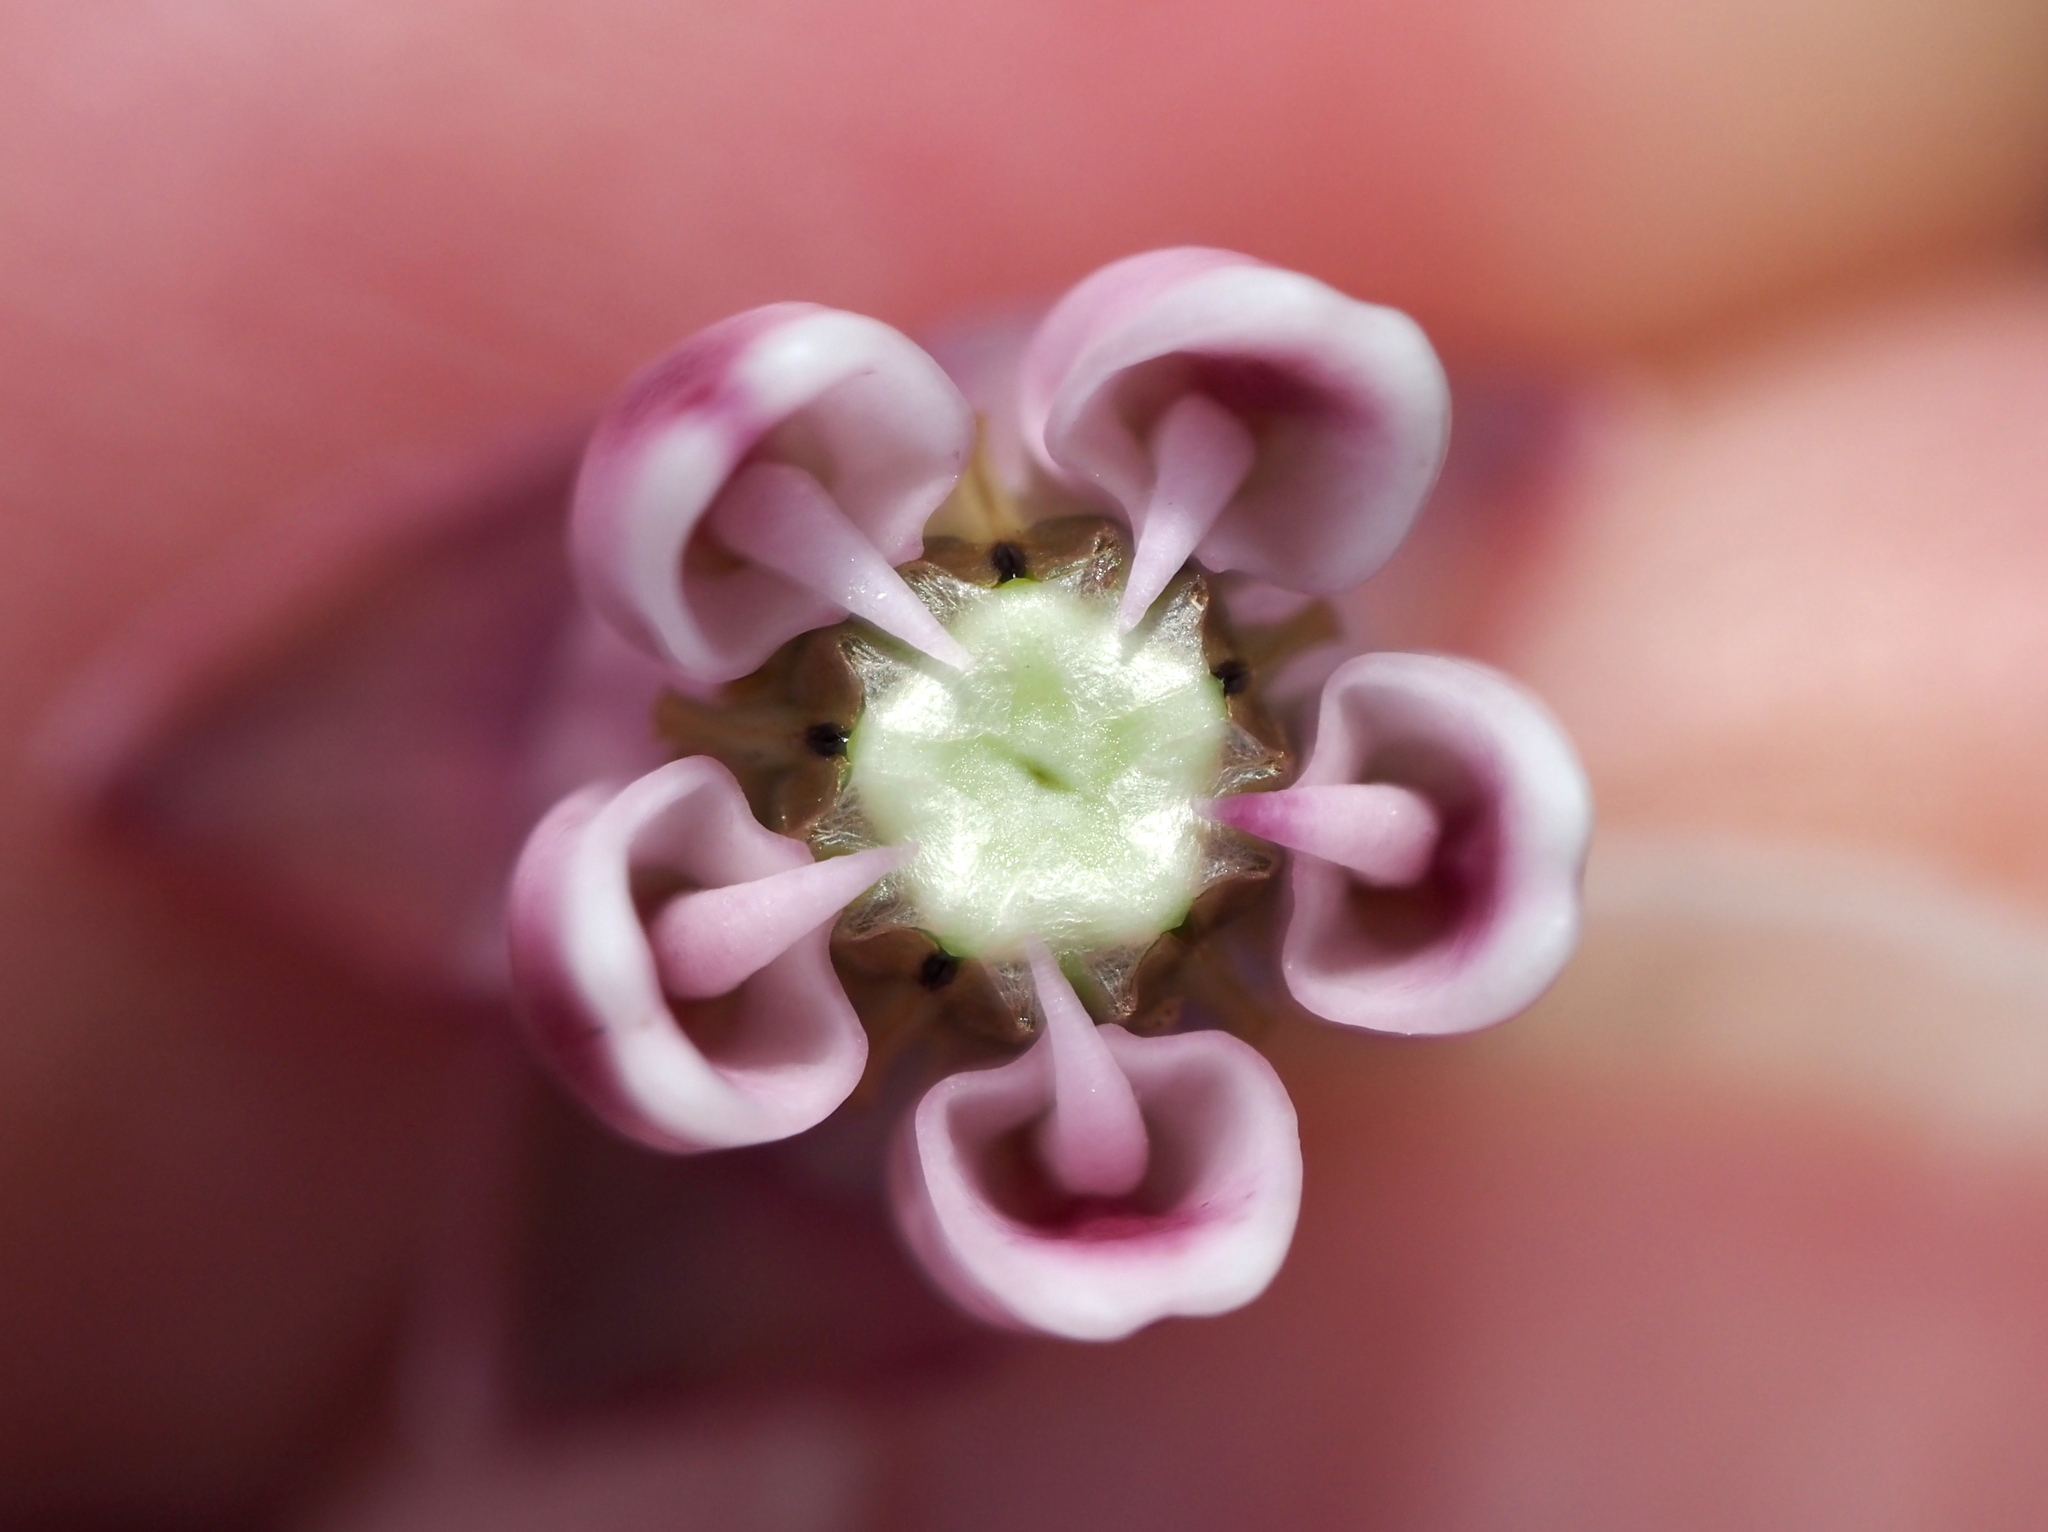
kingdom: Plantae
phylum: Tracheophyta
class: Magnoliopsida
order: Gentianales
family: Apocynaceae
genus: Asclepias
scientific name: Asclepias syriaca
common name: Common milkweed
